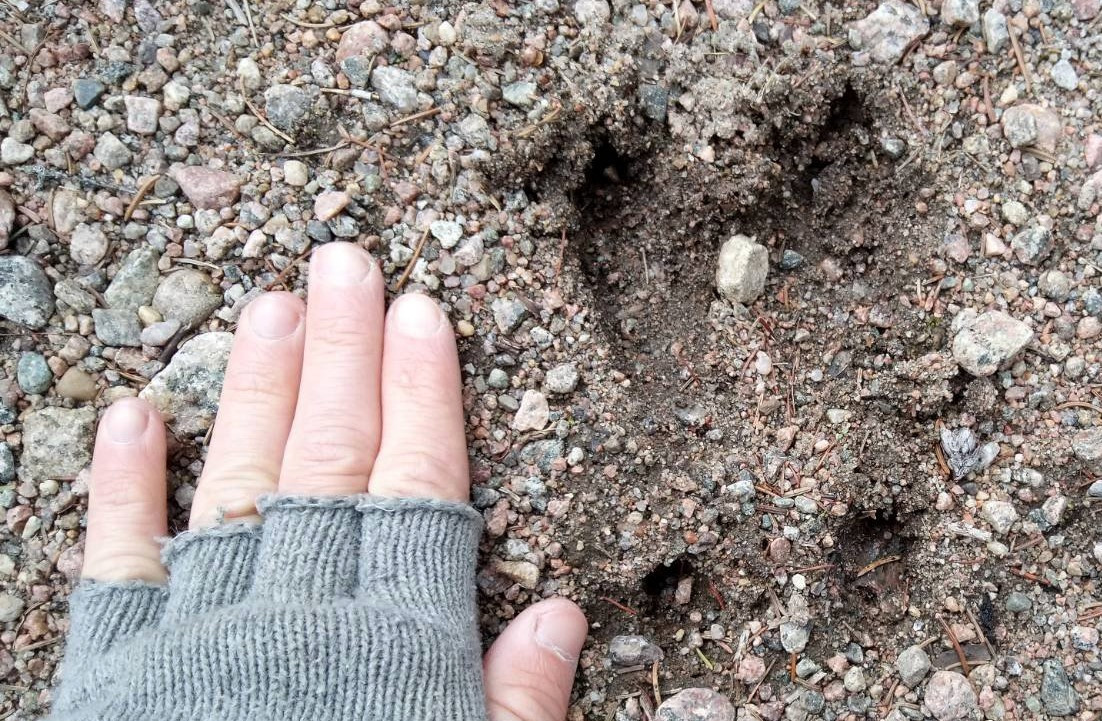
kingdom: Animalia
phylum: Chordata
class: Mammalia
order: Artiodactyla
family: Cervidae
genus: Odocoileus
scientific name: Odocoileus virginianus
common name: White-tailed deer
